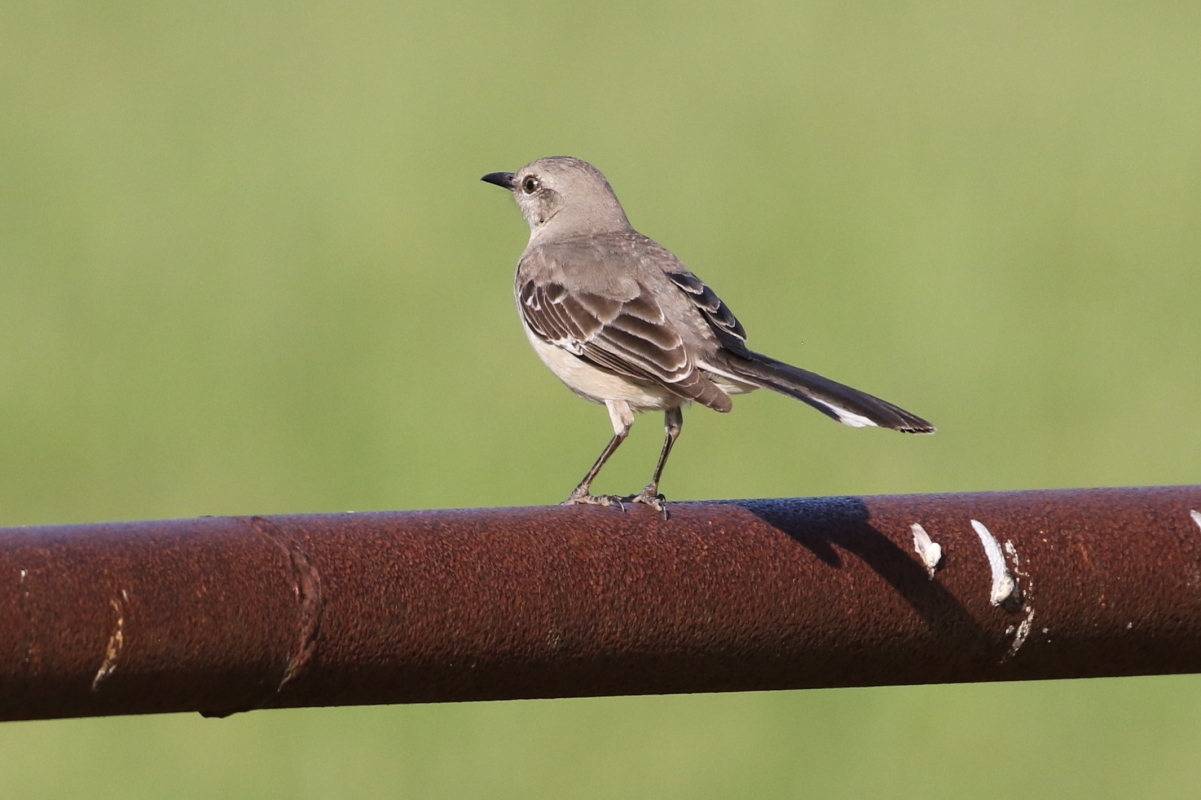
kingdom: Animalia
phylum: Chordata
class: Aves
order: Passeriformes
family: Mimidae
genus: Mimus
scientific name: Mimus polyglottos
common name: Northern mockingbird
